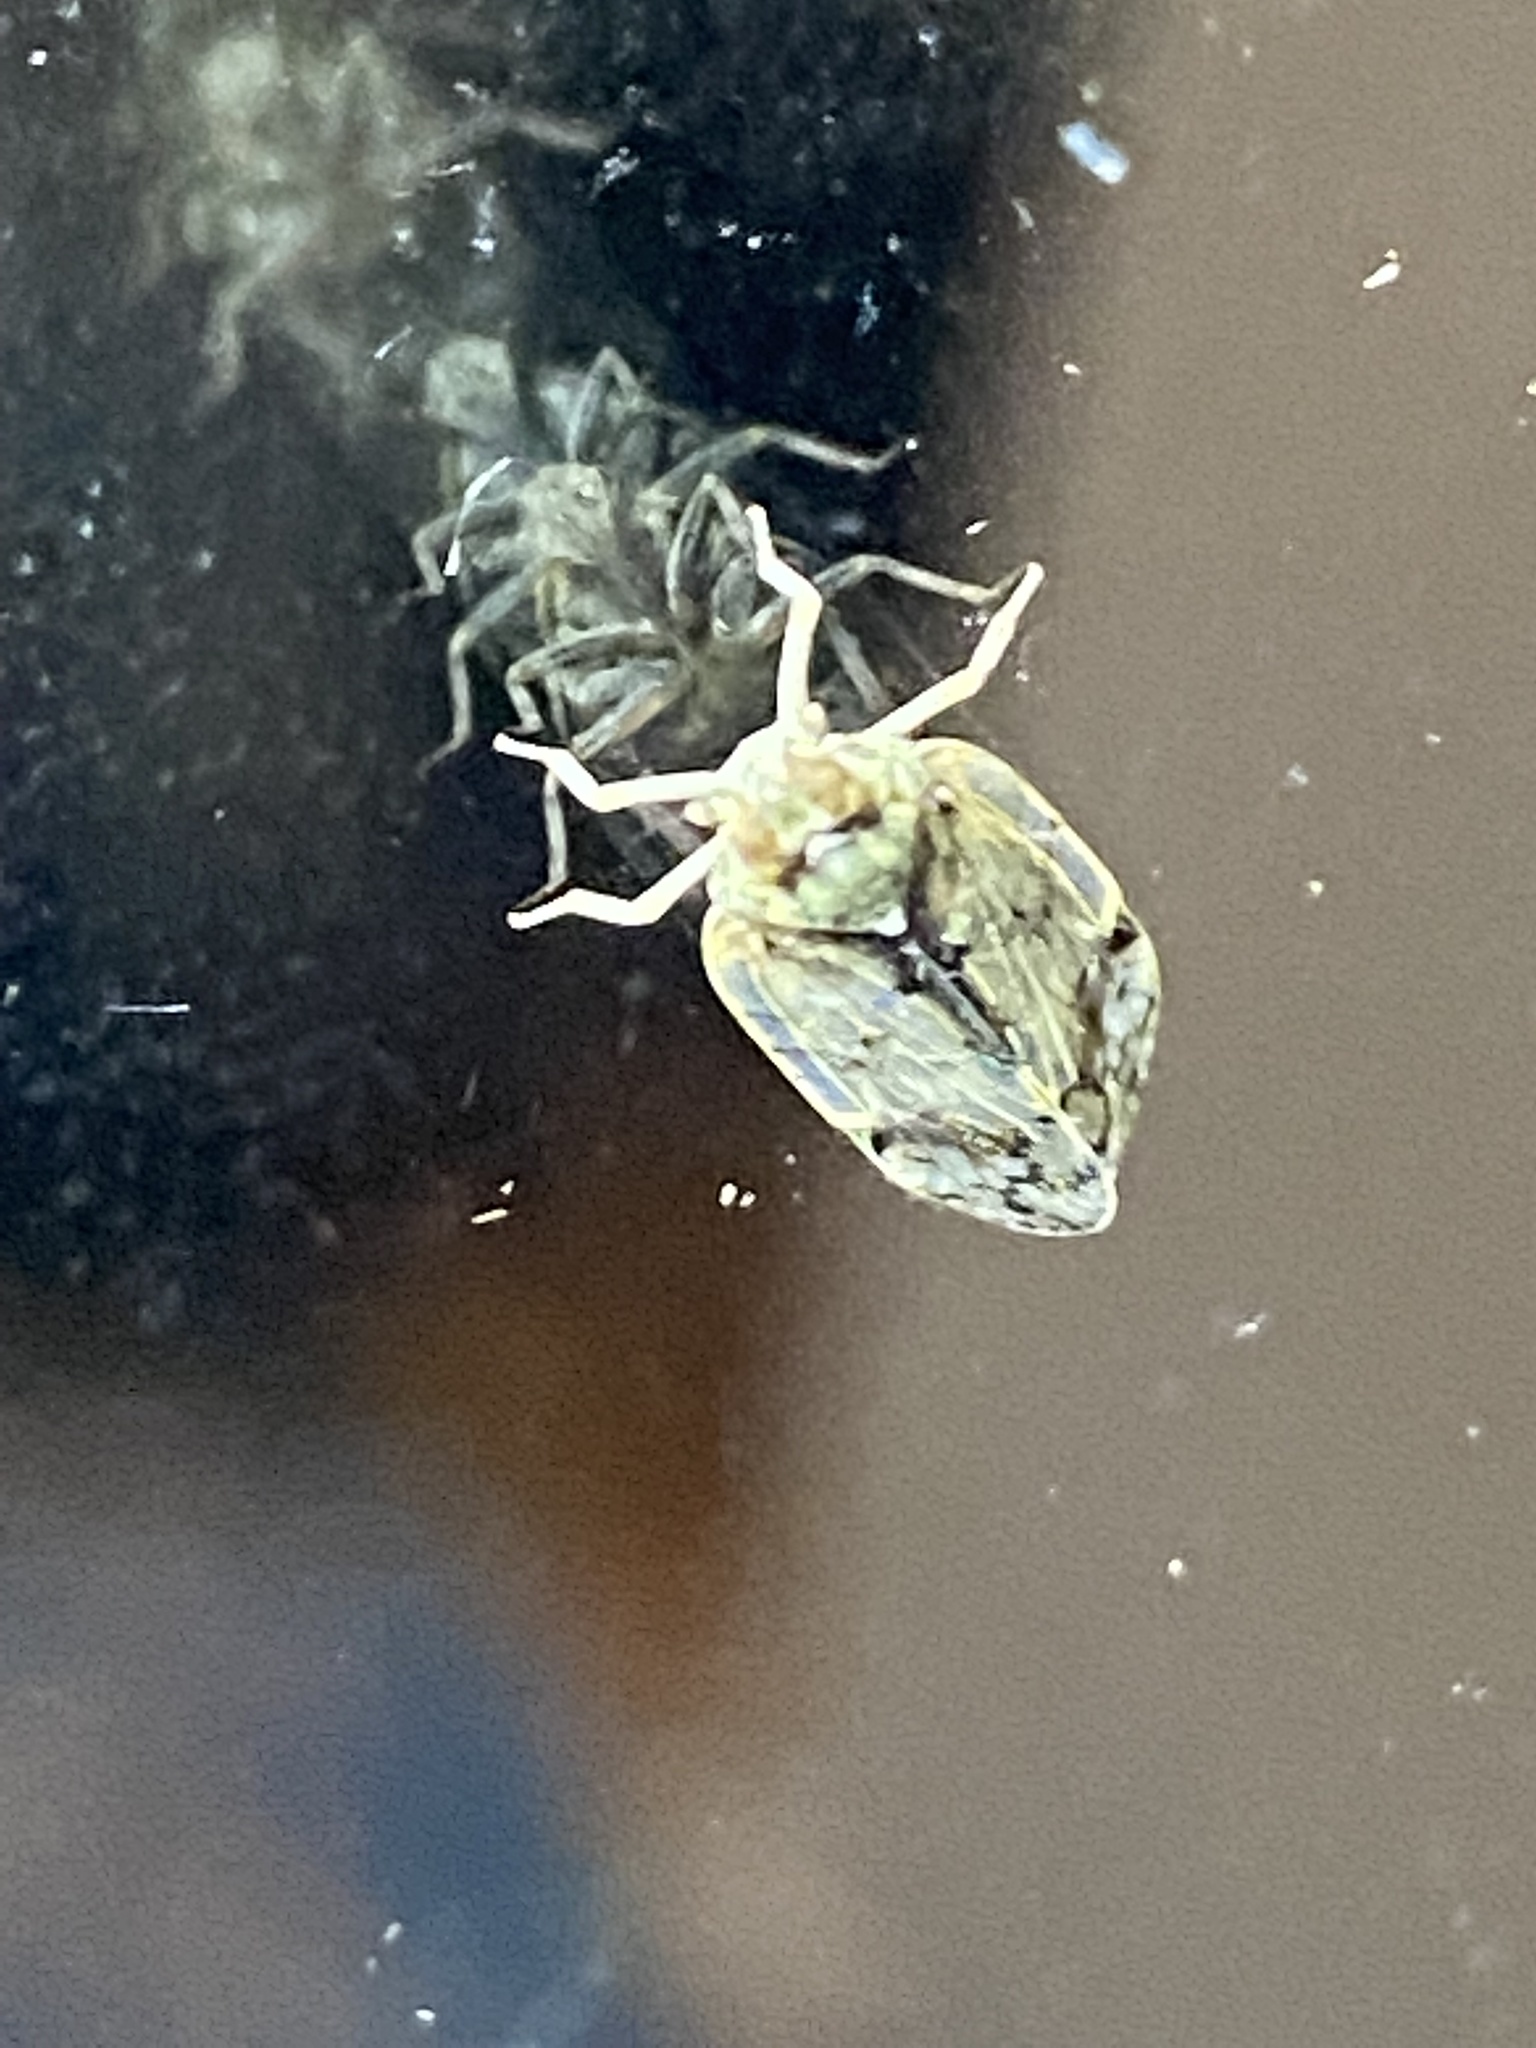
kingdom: Animalia
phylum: Arthropoda
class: Insecta
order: Hemiptera
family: Cixiidae
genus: Melanoliarus
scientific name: Melanoliarus placitus
